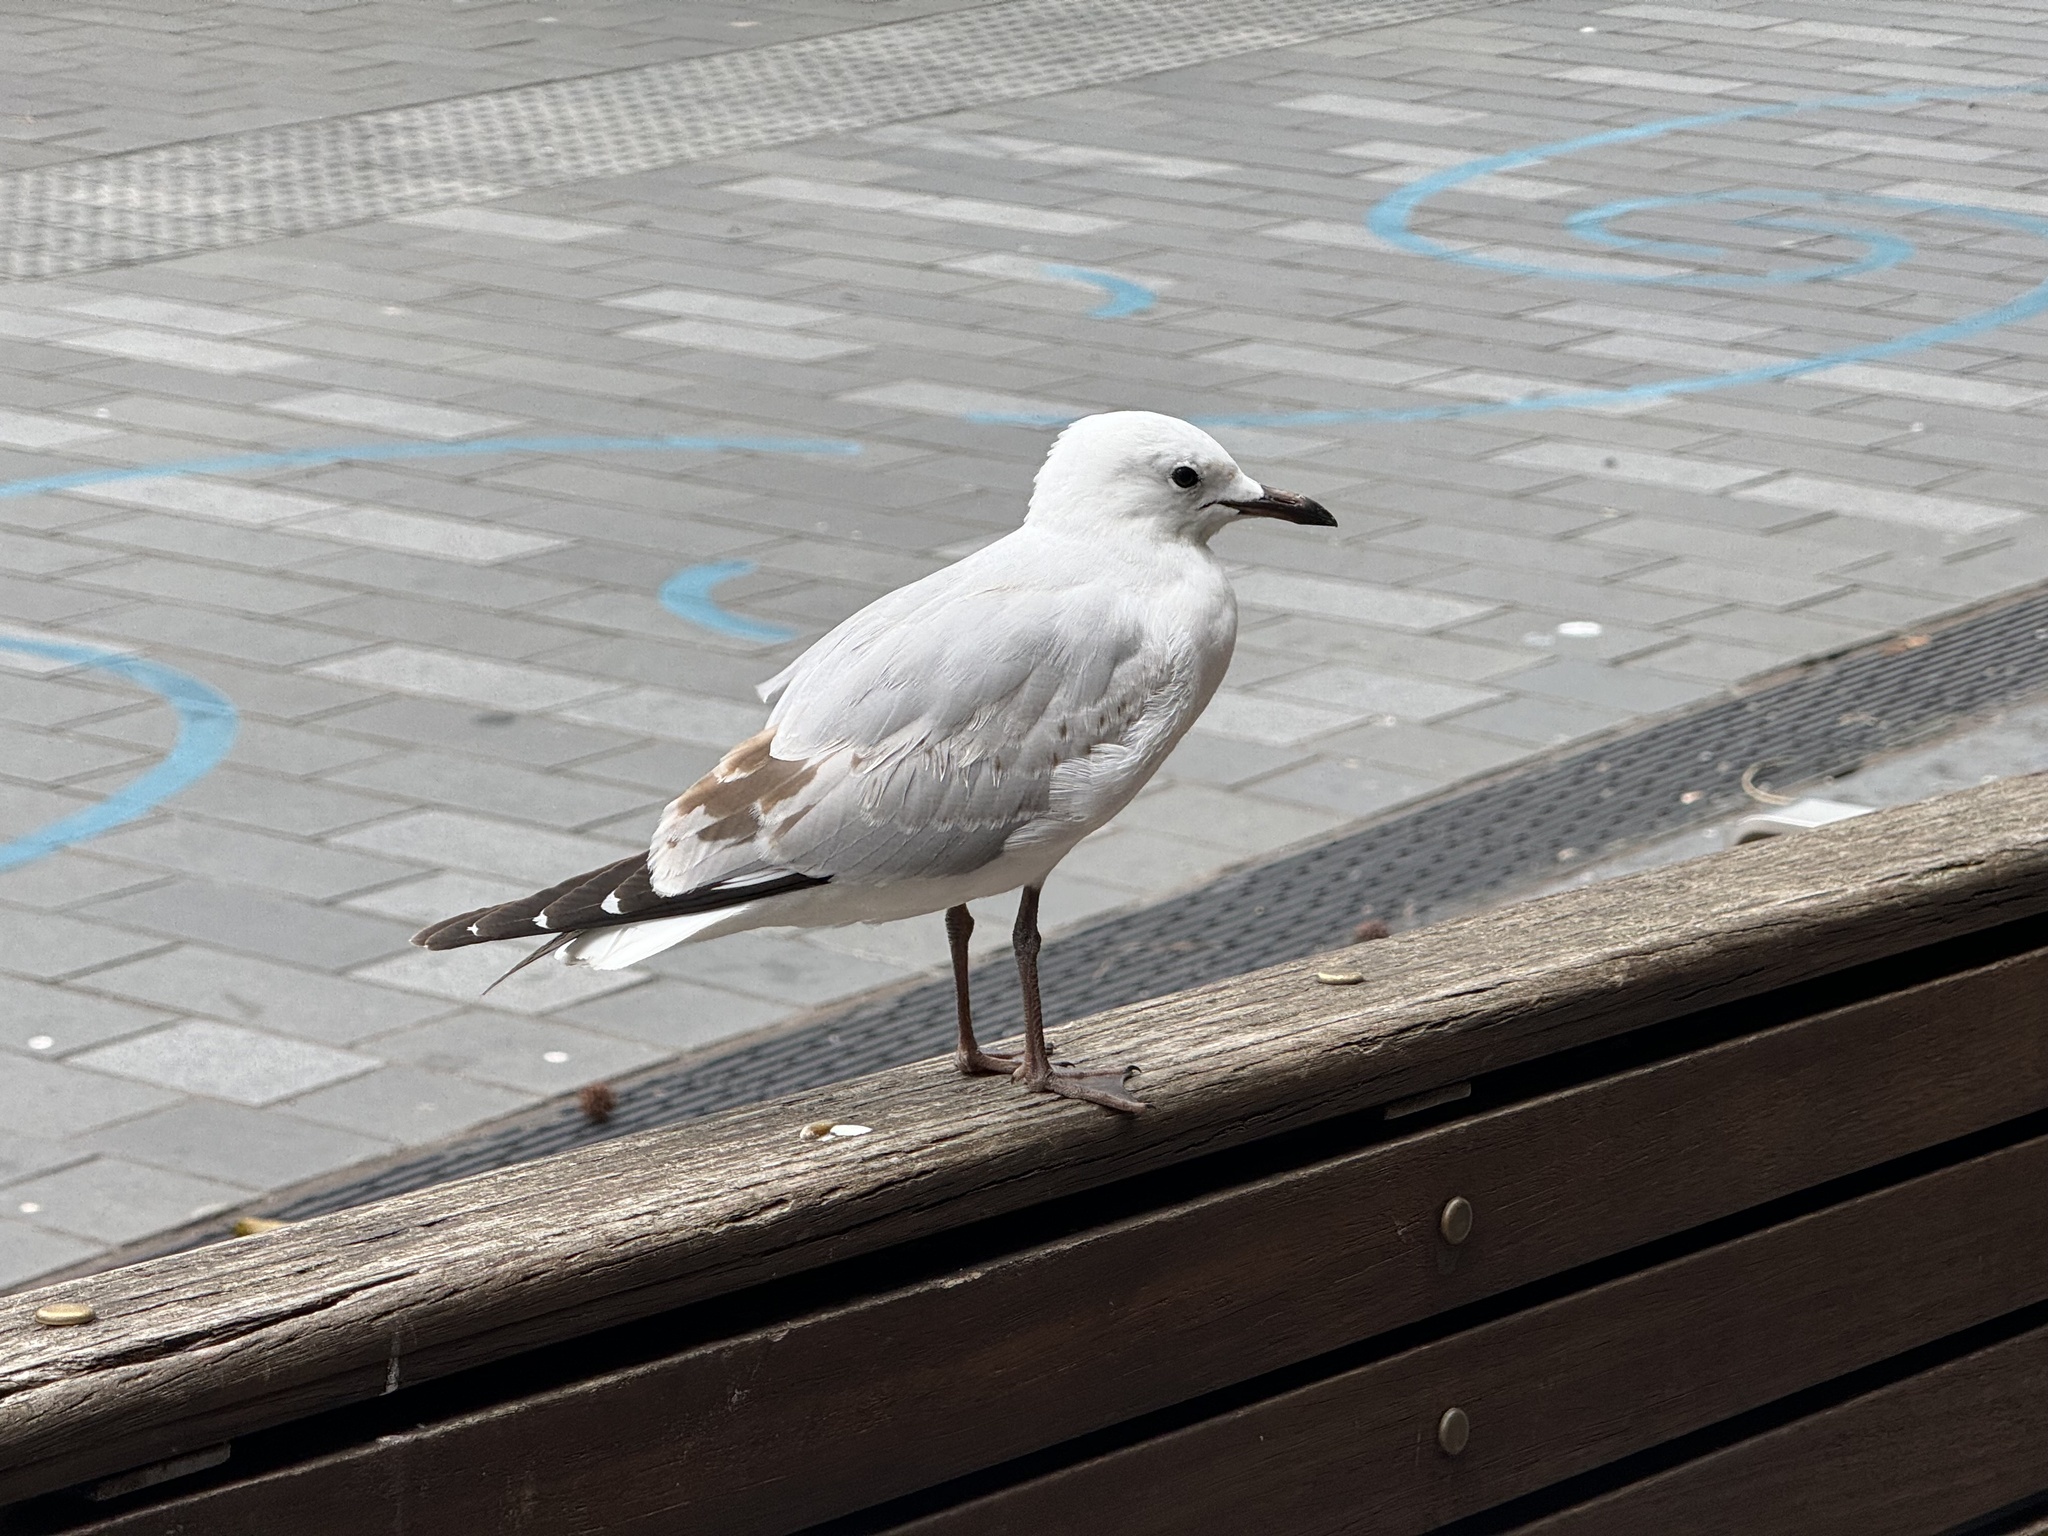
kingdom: Animalia
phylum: Chordata
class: Aves
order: Charadriiformes
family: Laridae
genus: Chroicocephalus
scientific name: Chroicocephalus novaehollandiae
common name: Silver gull
